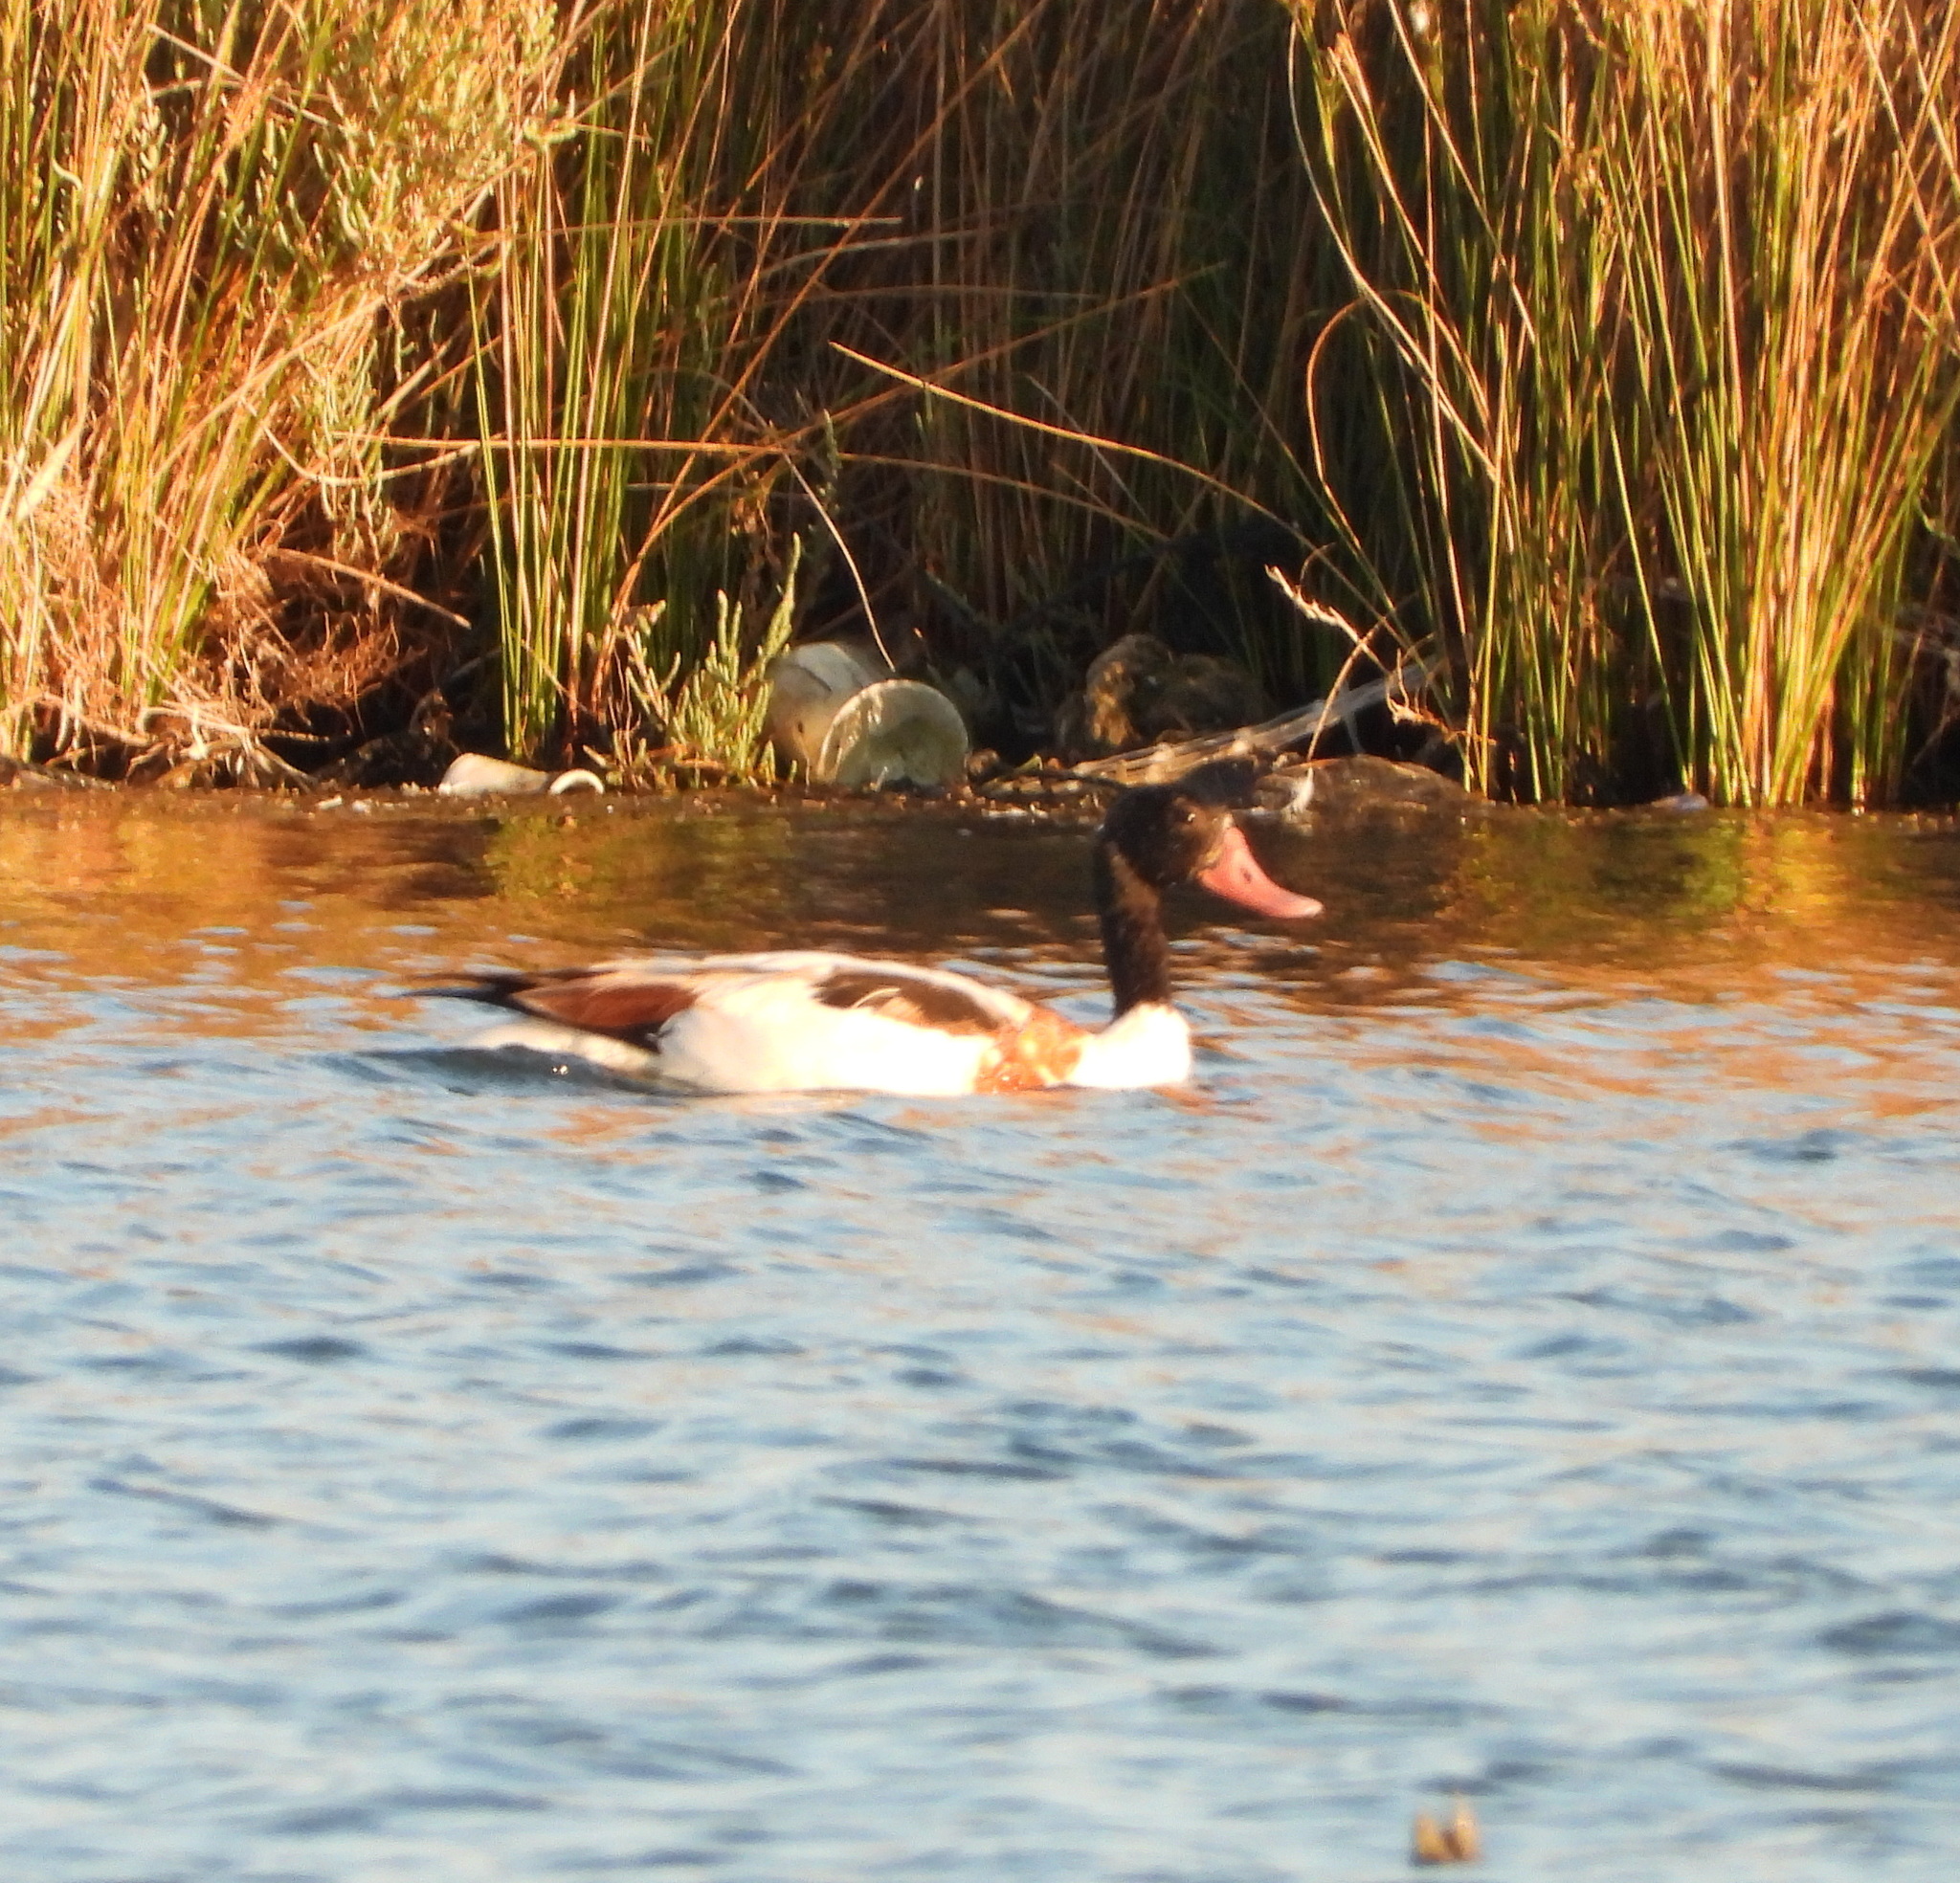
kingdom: Animalia
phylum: Chordata
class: Aves
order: Anseriformes
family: Anatidae
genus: Tadorna
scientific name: Tadorna tadorna
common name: Common shelduck
